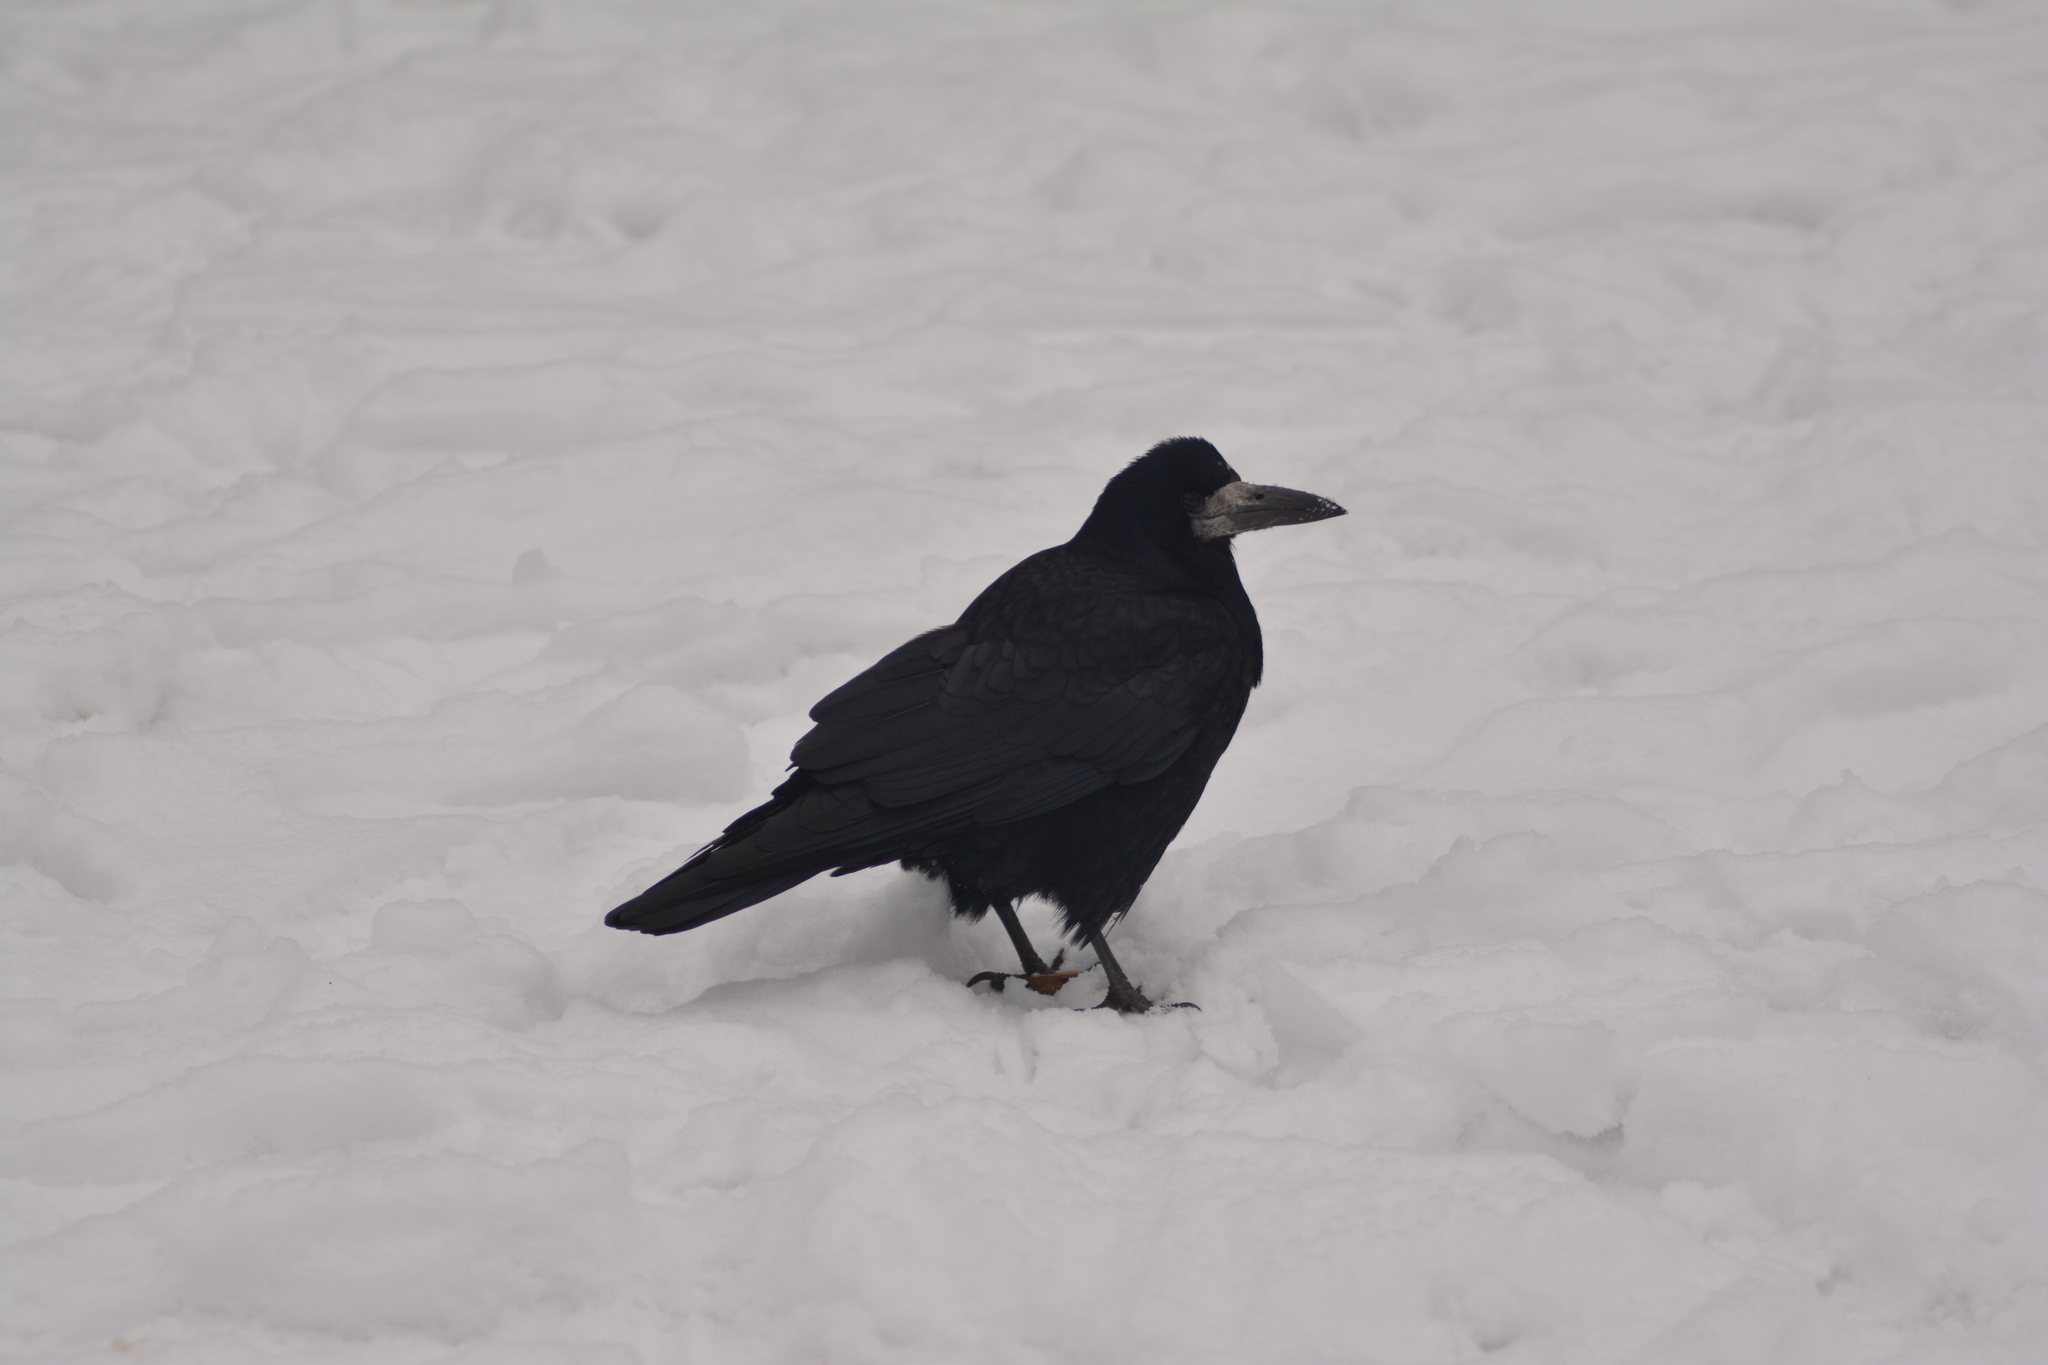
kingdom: Animalia
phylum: Chordata
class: Aves
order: Passeriformes
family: Corvidae
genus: Corvus
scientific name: Corvus frugilegus
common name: Rook
